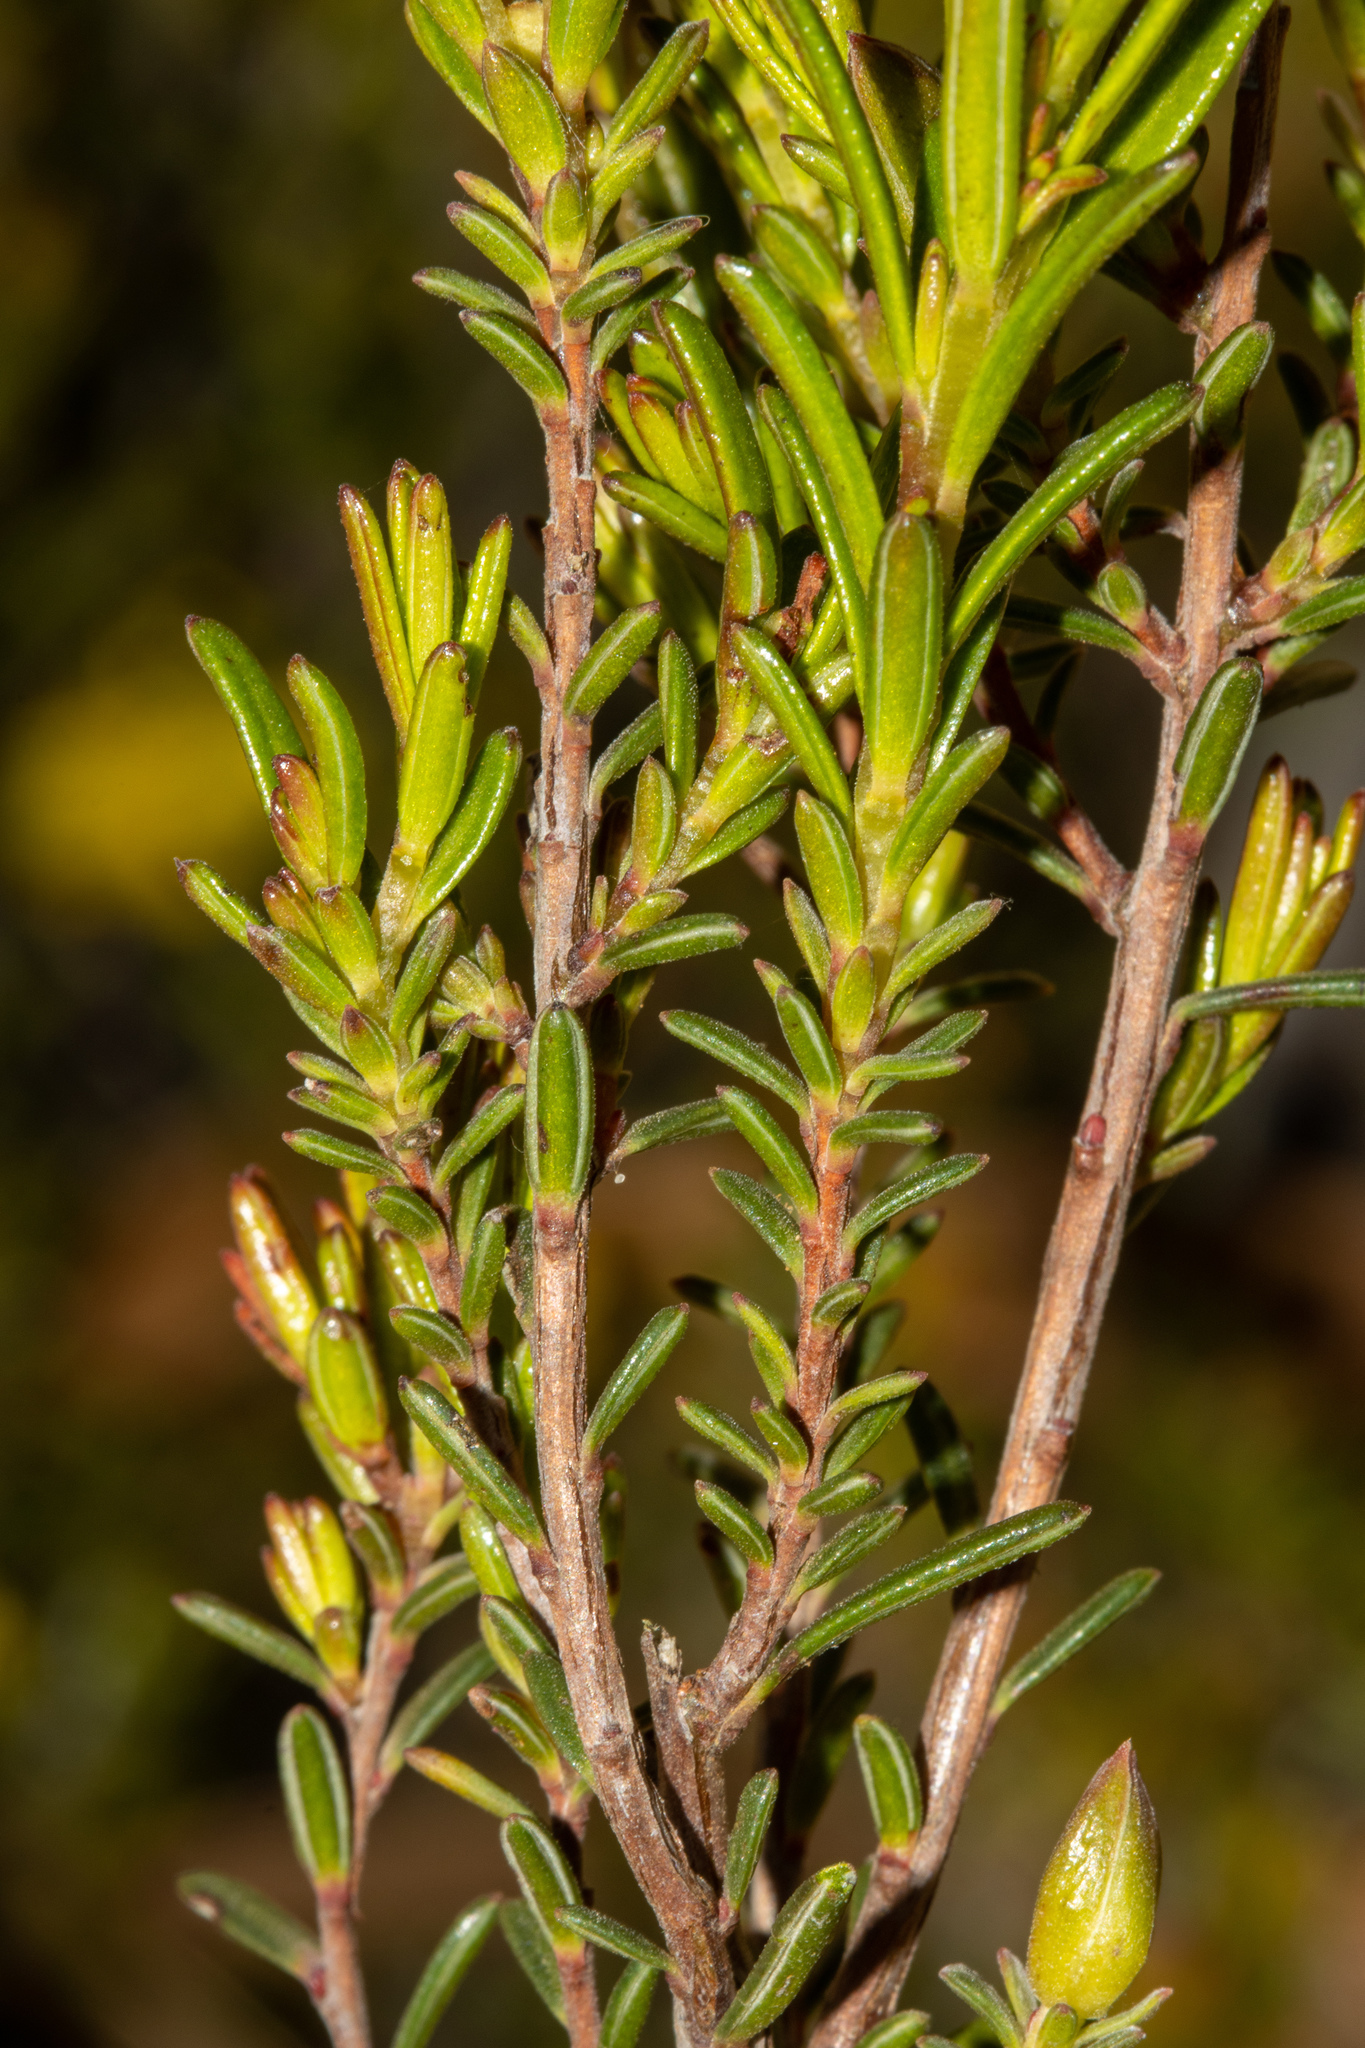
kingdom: Plantae
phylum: Tracheophyta
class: Magnoliopsida
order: Dilleniales
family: Dilleniaceae
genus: Hibbertia
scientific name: Hibbertia devitata
